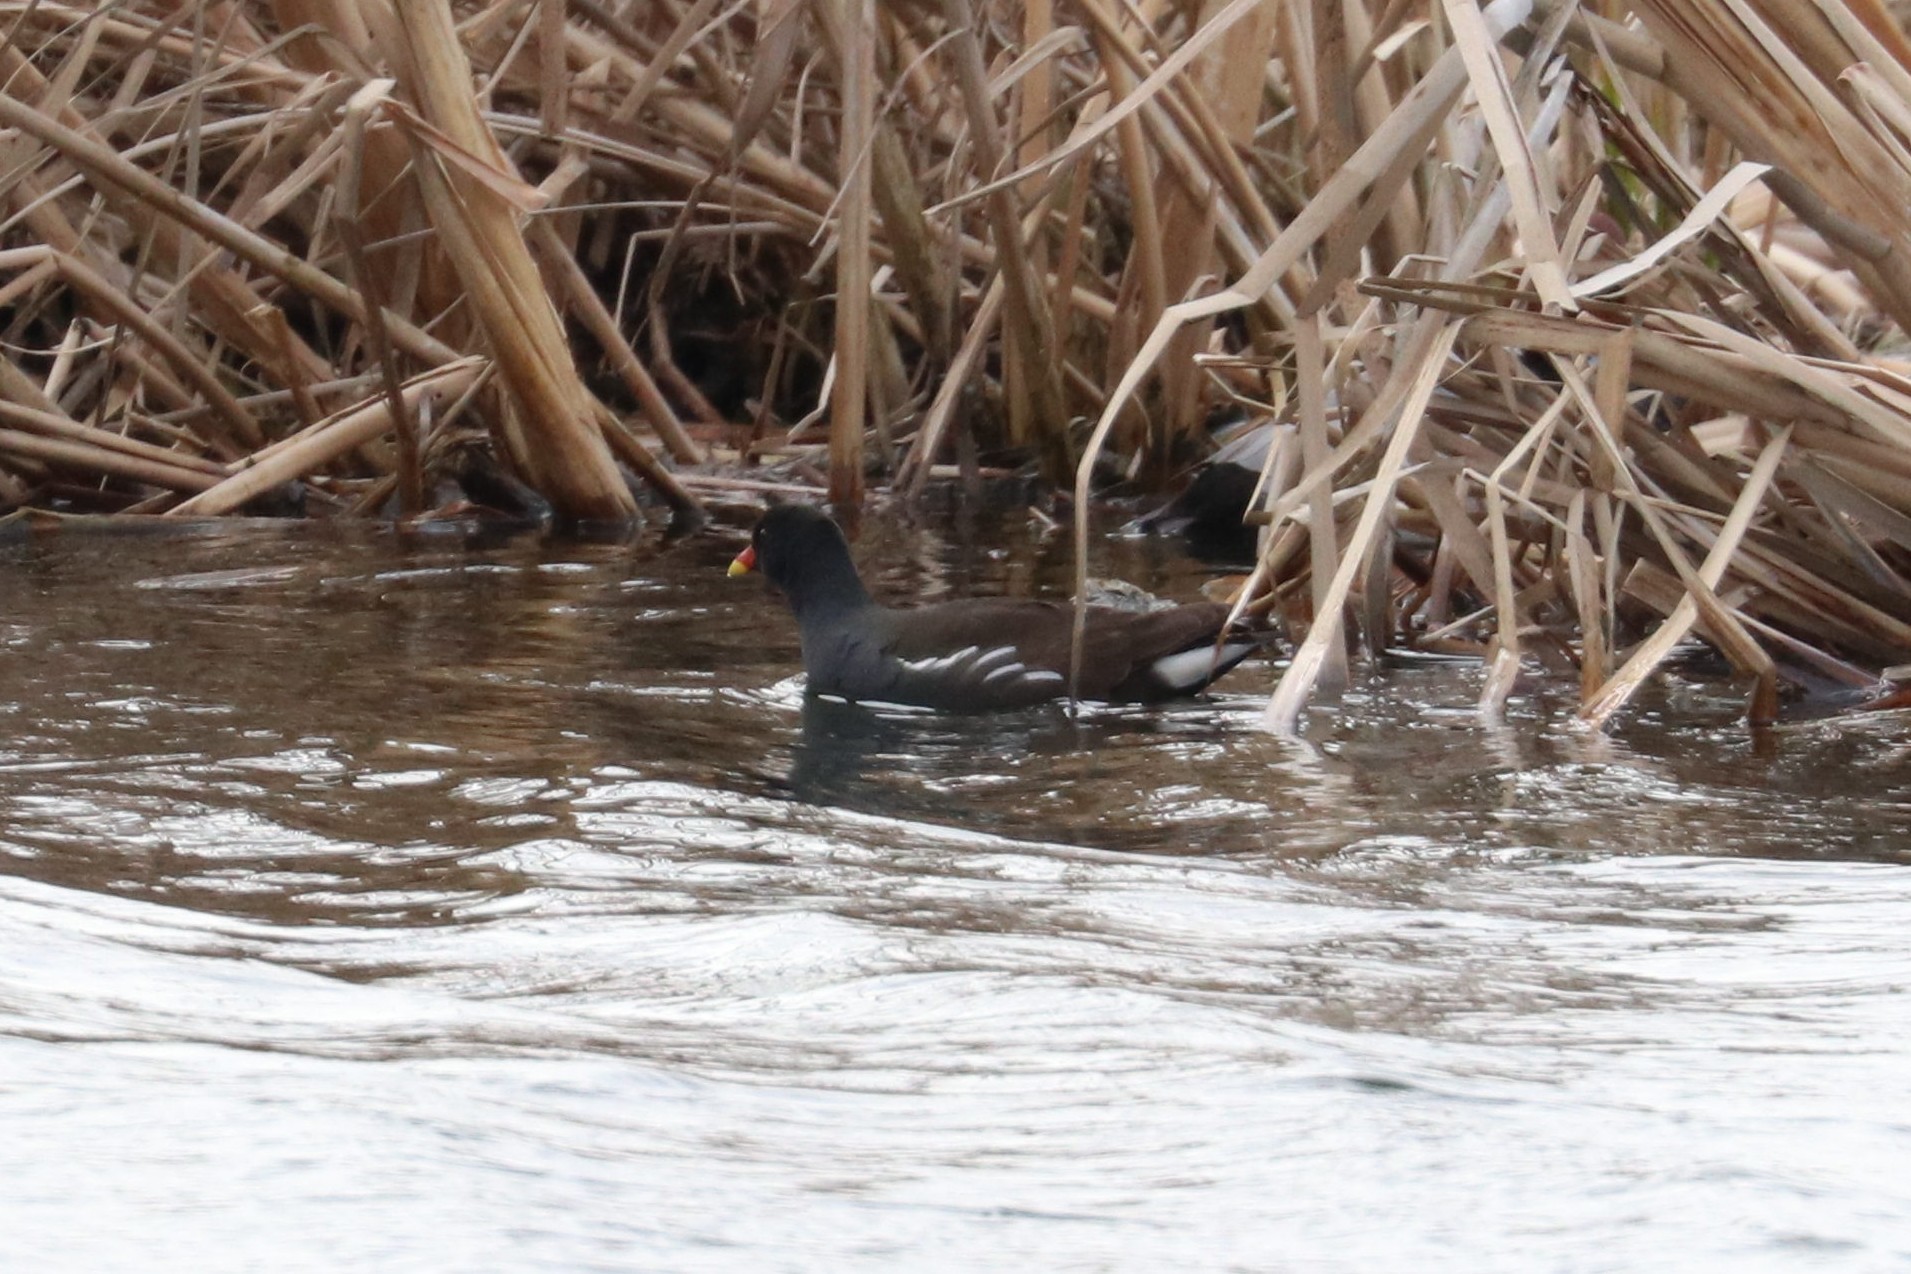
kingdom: Animalia
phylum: Chordata
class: Aves
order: Gruiformes
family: Rallidae
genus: Gallinula
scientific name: Gallinula chloropus
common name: Common moorhen
